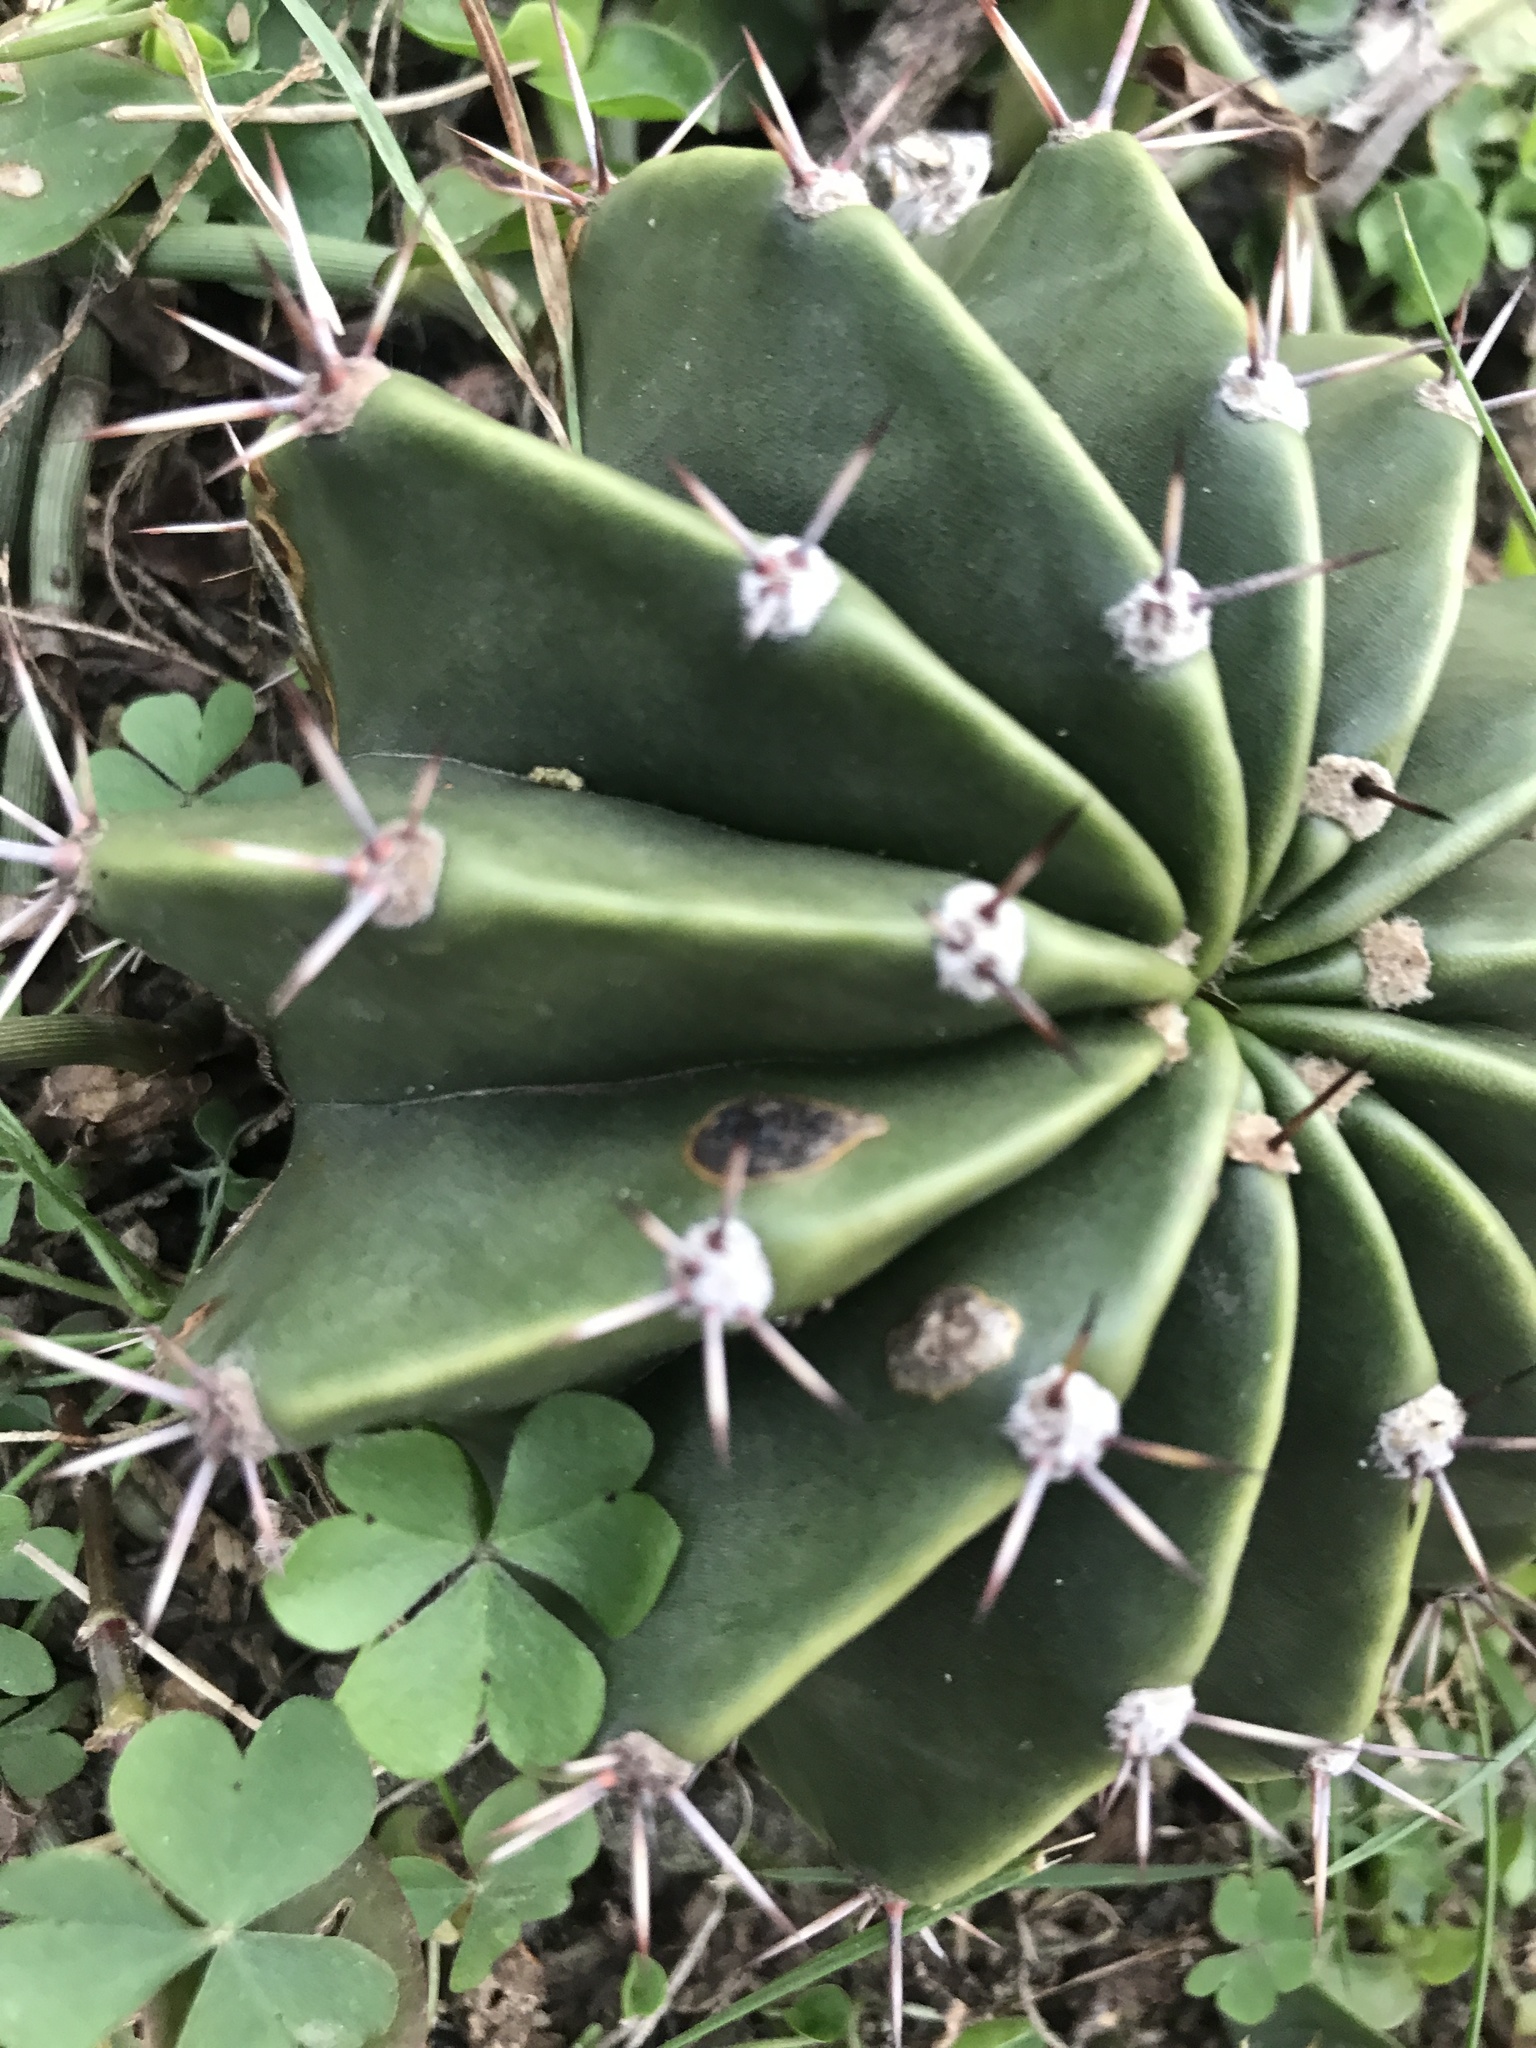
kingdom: Plantae
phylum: Tracheophyta
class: Magnoliopsida
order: Caryophyllales
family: Cactaceae
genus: Echinopsis
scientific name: Echinopsis oxygona
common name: Red easter-lily cactus
